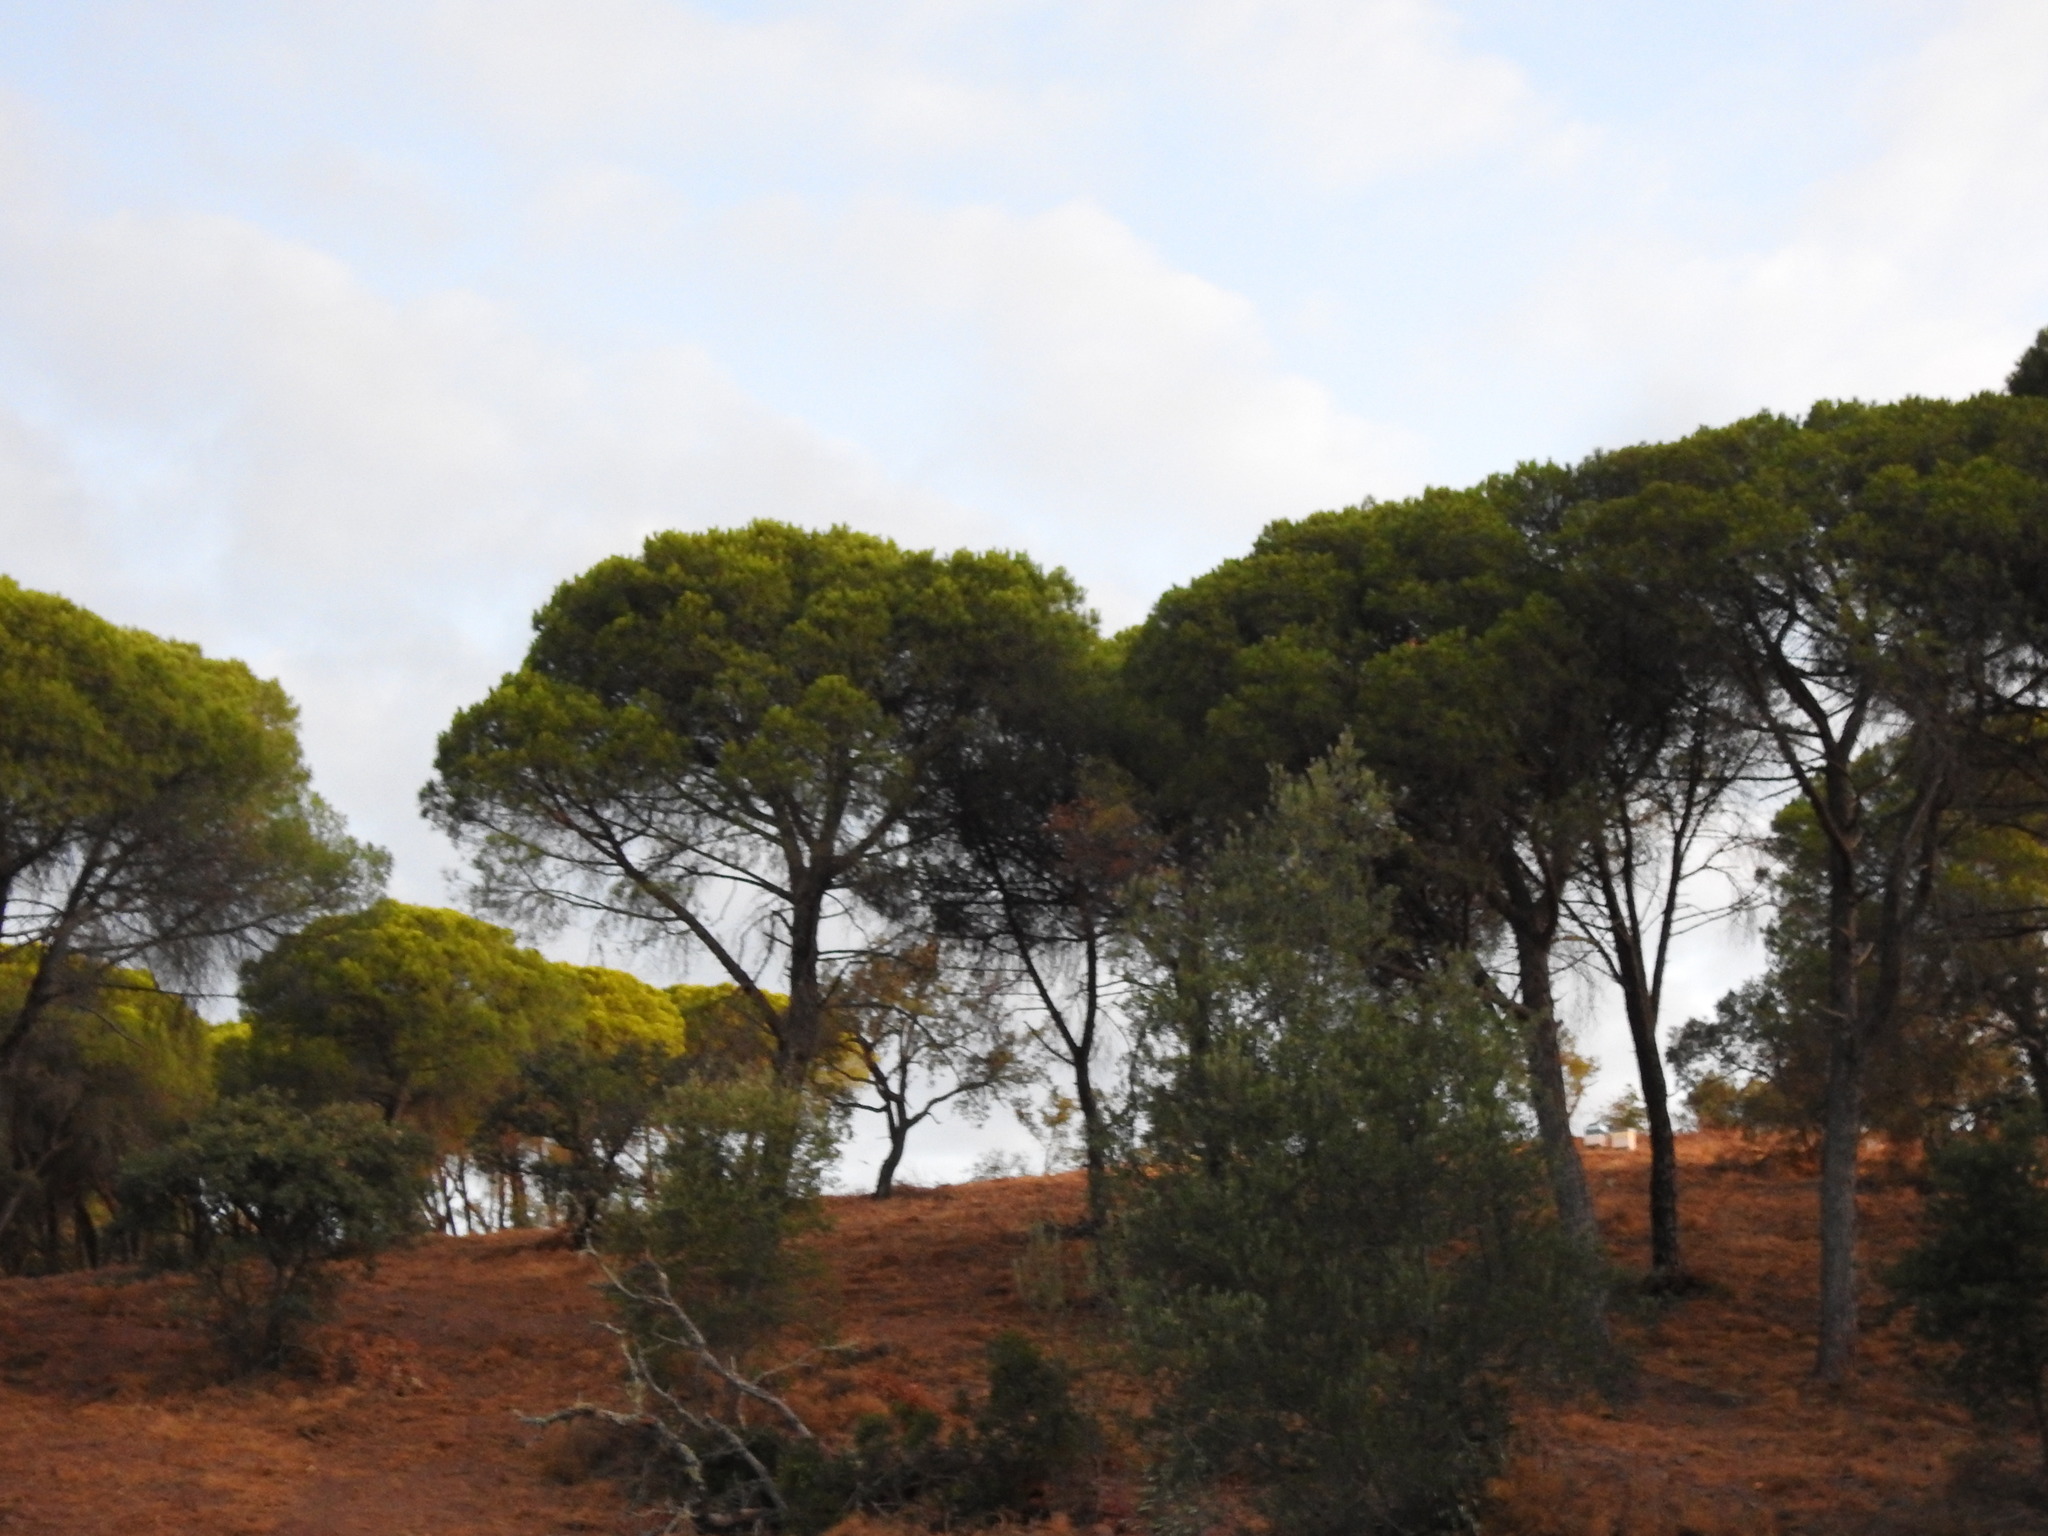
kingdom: Plantae
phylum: Tracheophyta
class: Pinopsida
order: Pinales
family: Pinaceae
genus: Pinus
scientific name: Pinus pinea
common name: Italian stone pine
